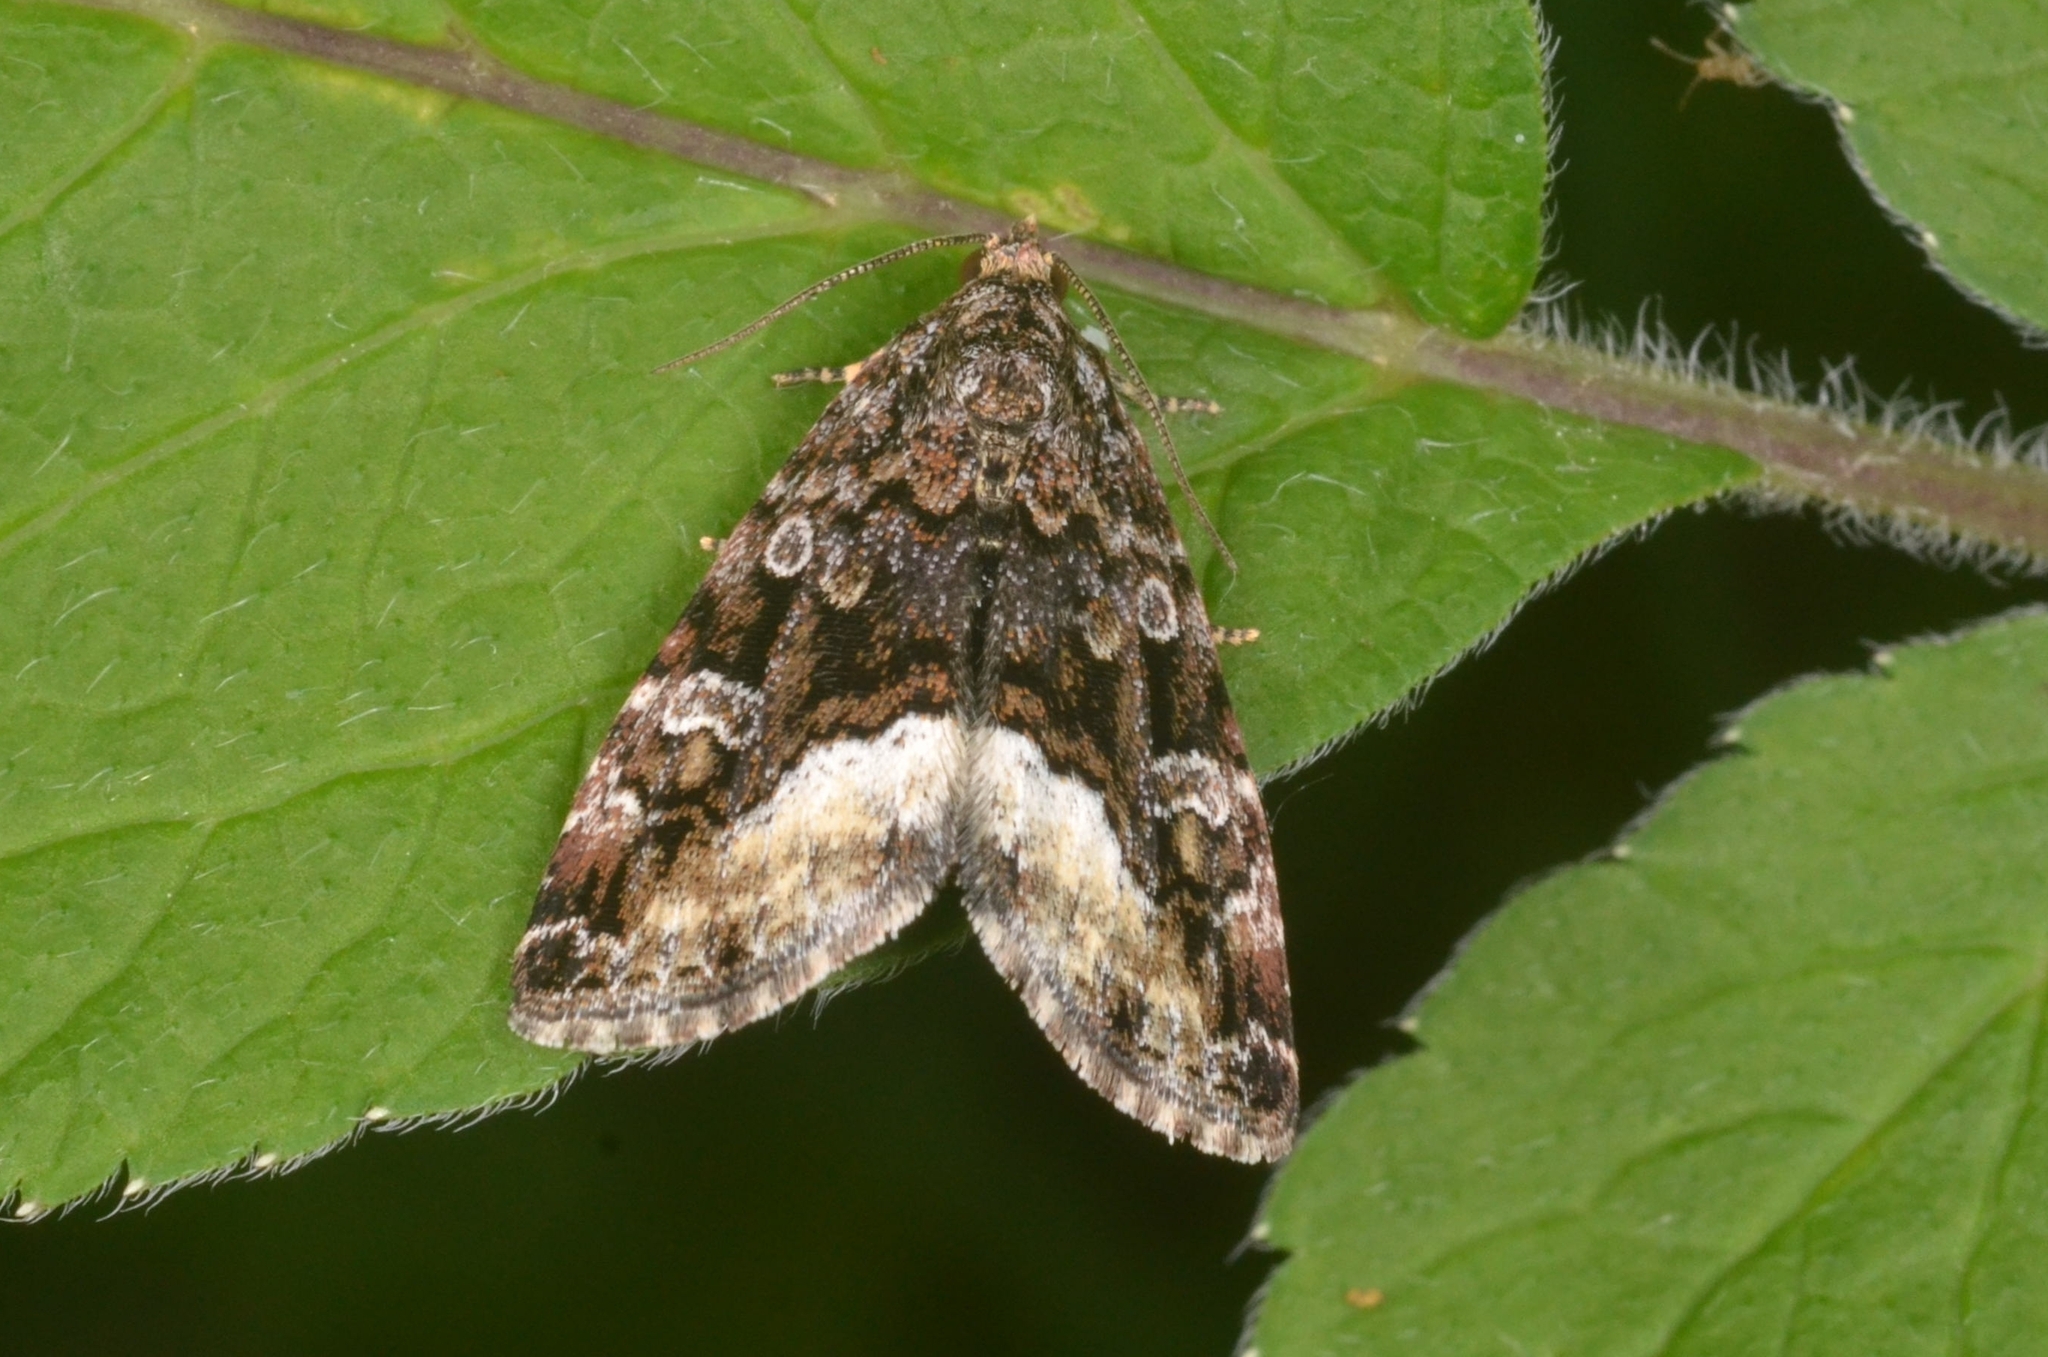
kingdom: Animalia
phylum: Arthropoda
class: Insecta
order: Lepidoptera
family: Noctuidae
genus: Deltote
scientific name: Deltote pygarga
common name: Marbled white spot
